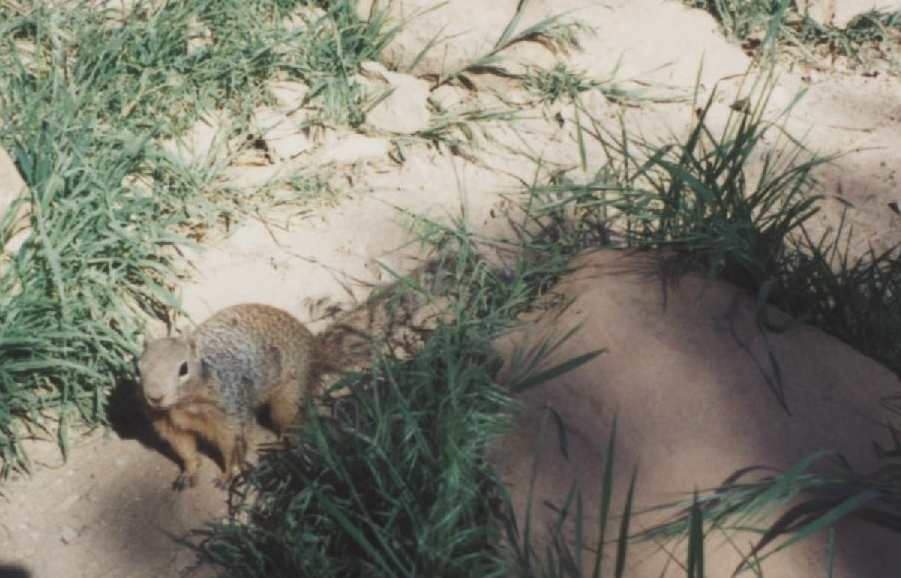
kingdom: Animalia
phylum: Chordata
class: Mammalia
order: Rodentia
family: Sciuridae
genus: Otospermophilus
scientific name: Otospermophilus variegatus
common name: Rock squirrel
